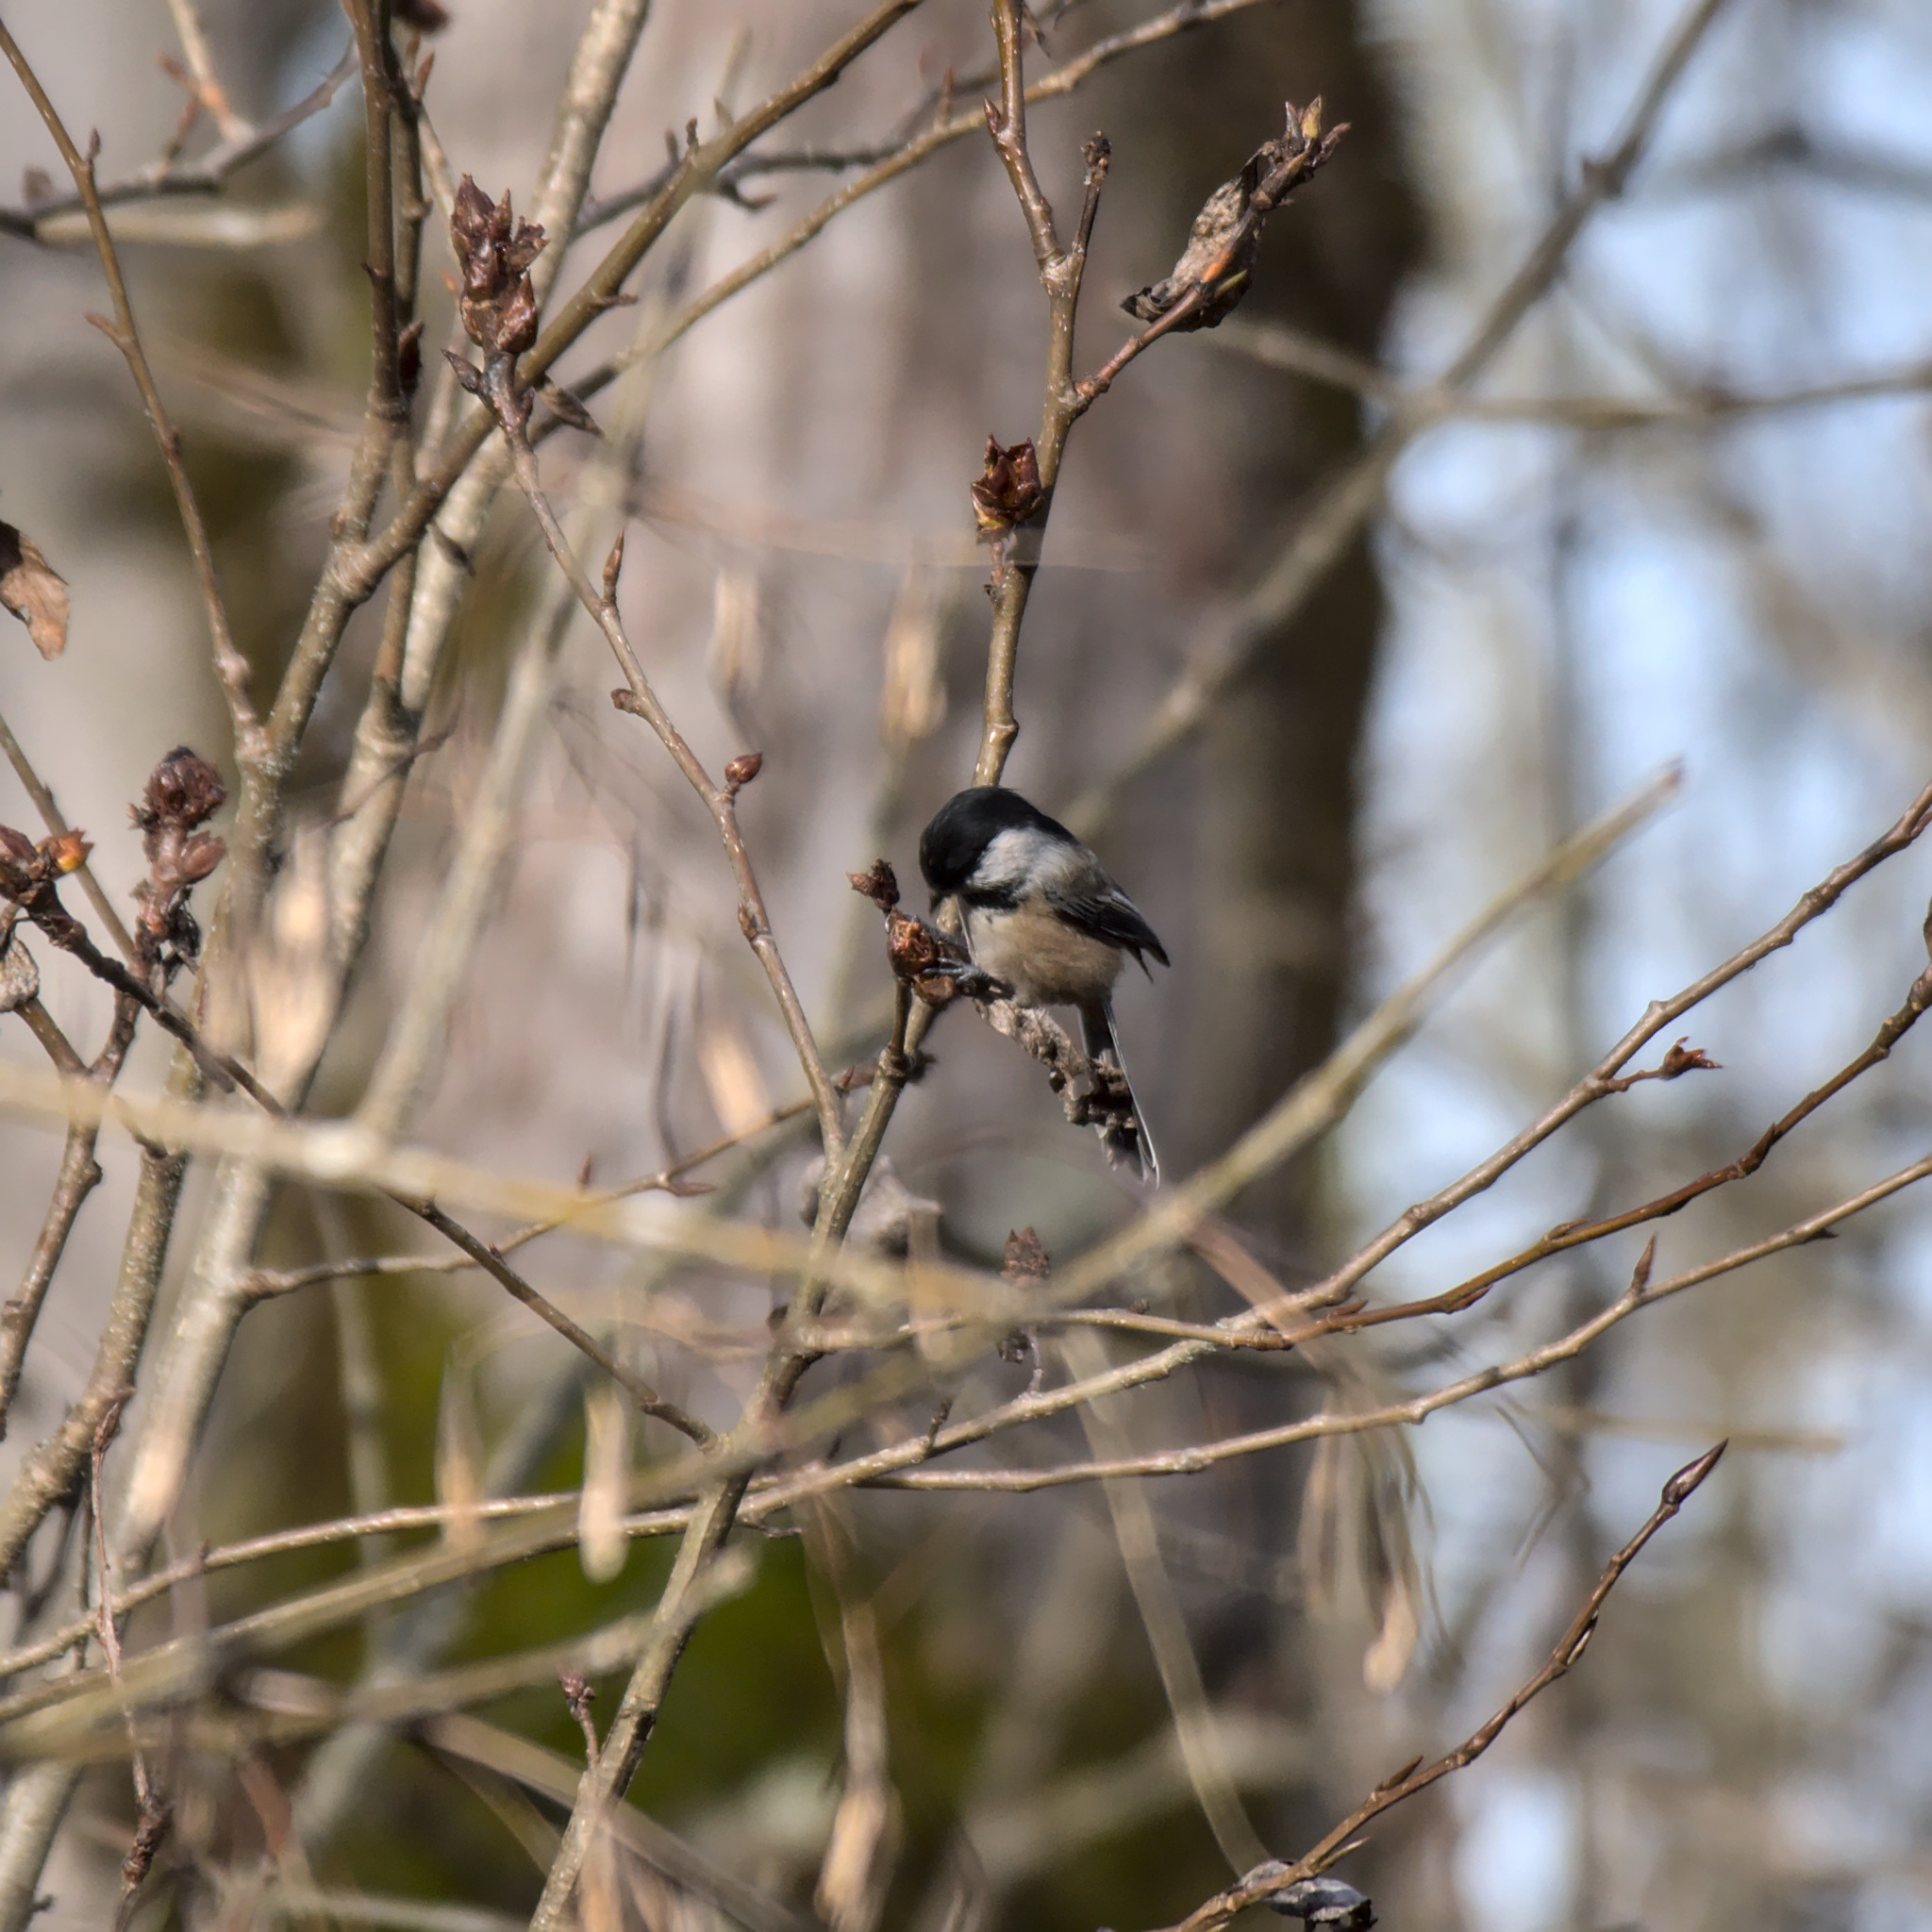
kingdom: Animalia
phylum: Chordata
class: Aves
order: Passeriformes
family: Paridae
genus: Poecile
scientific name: Poecile atricapillus
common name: Black-capped chickadee
